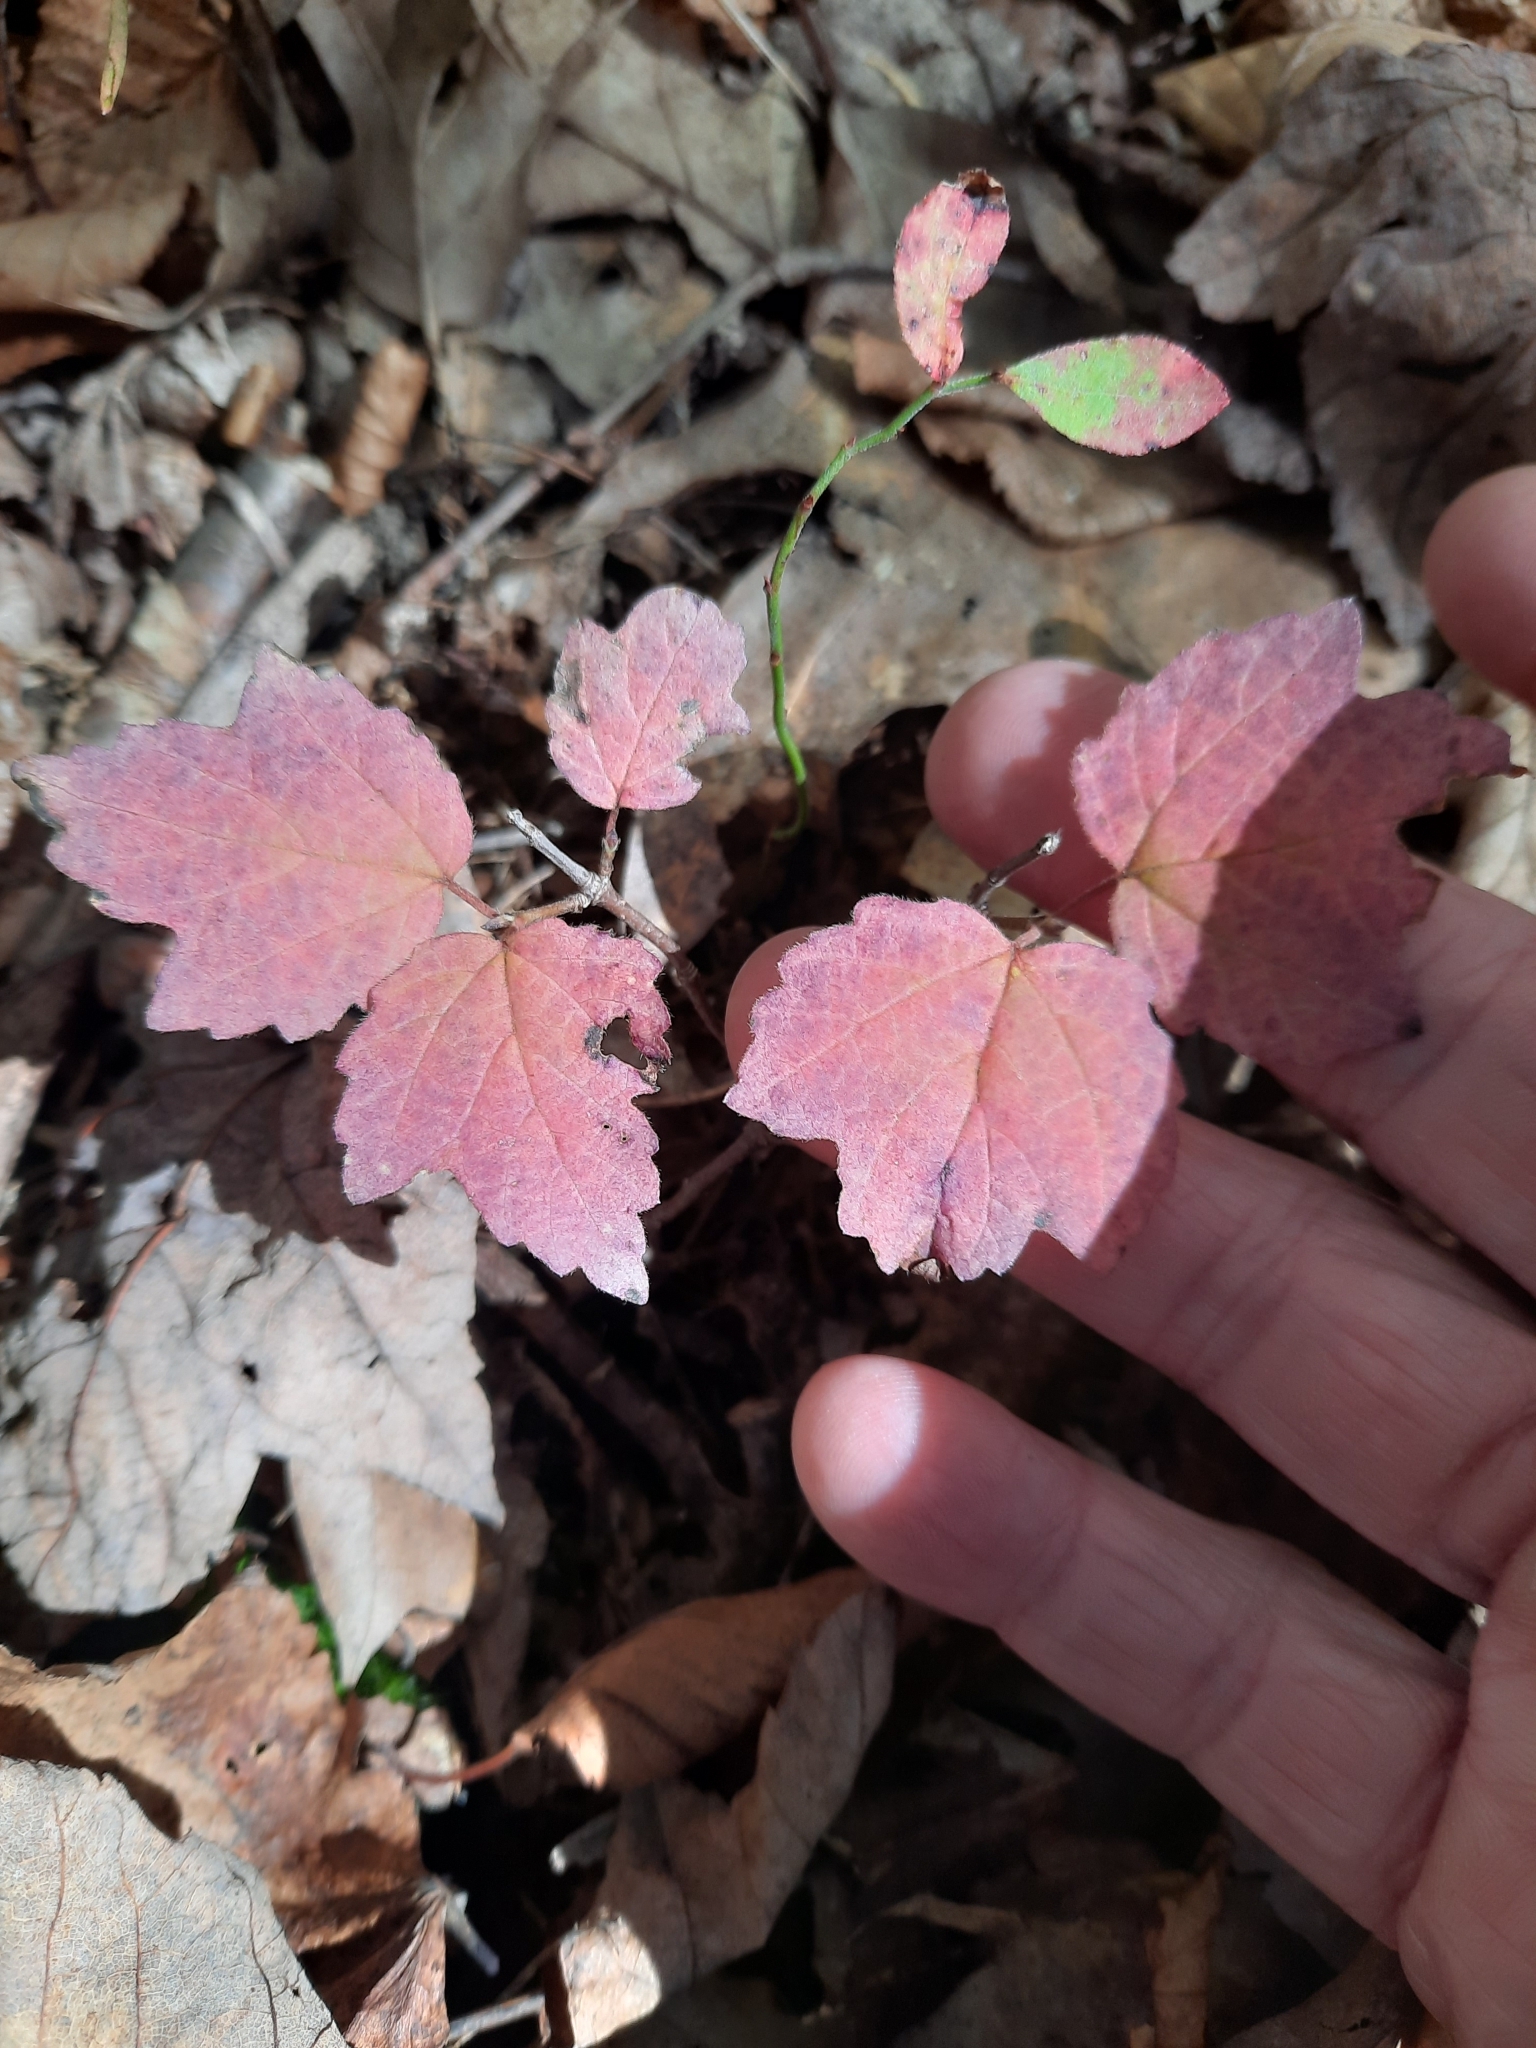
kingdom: Plantae
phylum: Tracheophyta
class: Magnoliopsida
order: Dipsacales
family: Viburnaceae
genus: Viburnum
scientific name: Viburnum acerifolium
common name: Dockmackie
